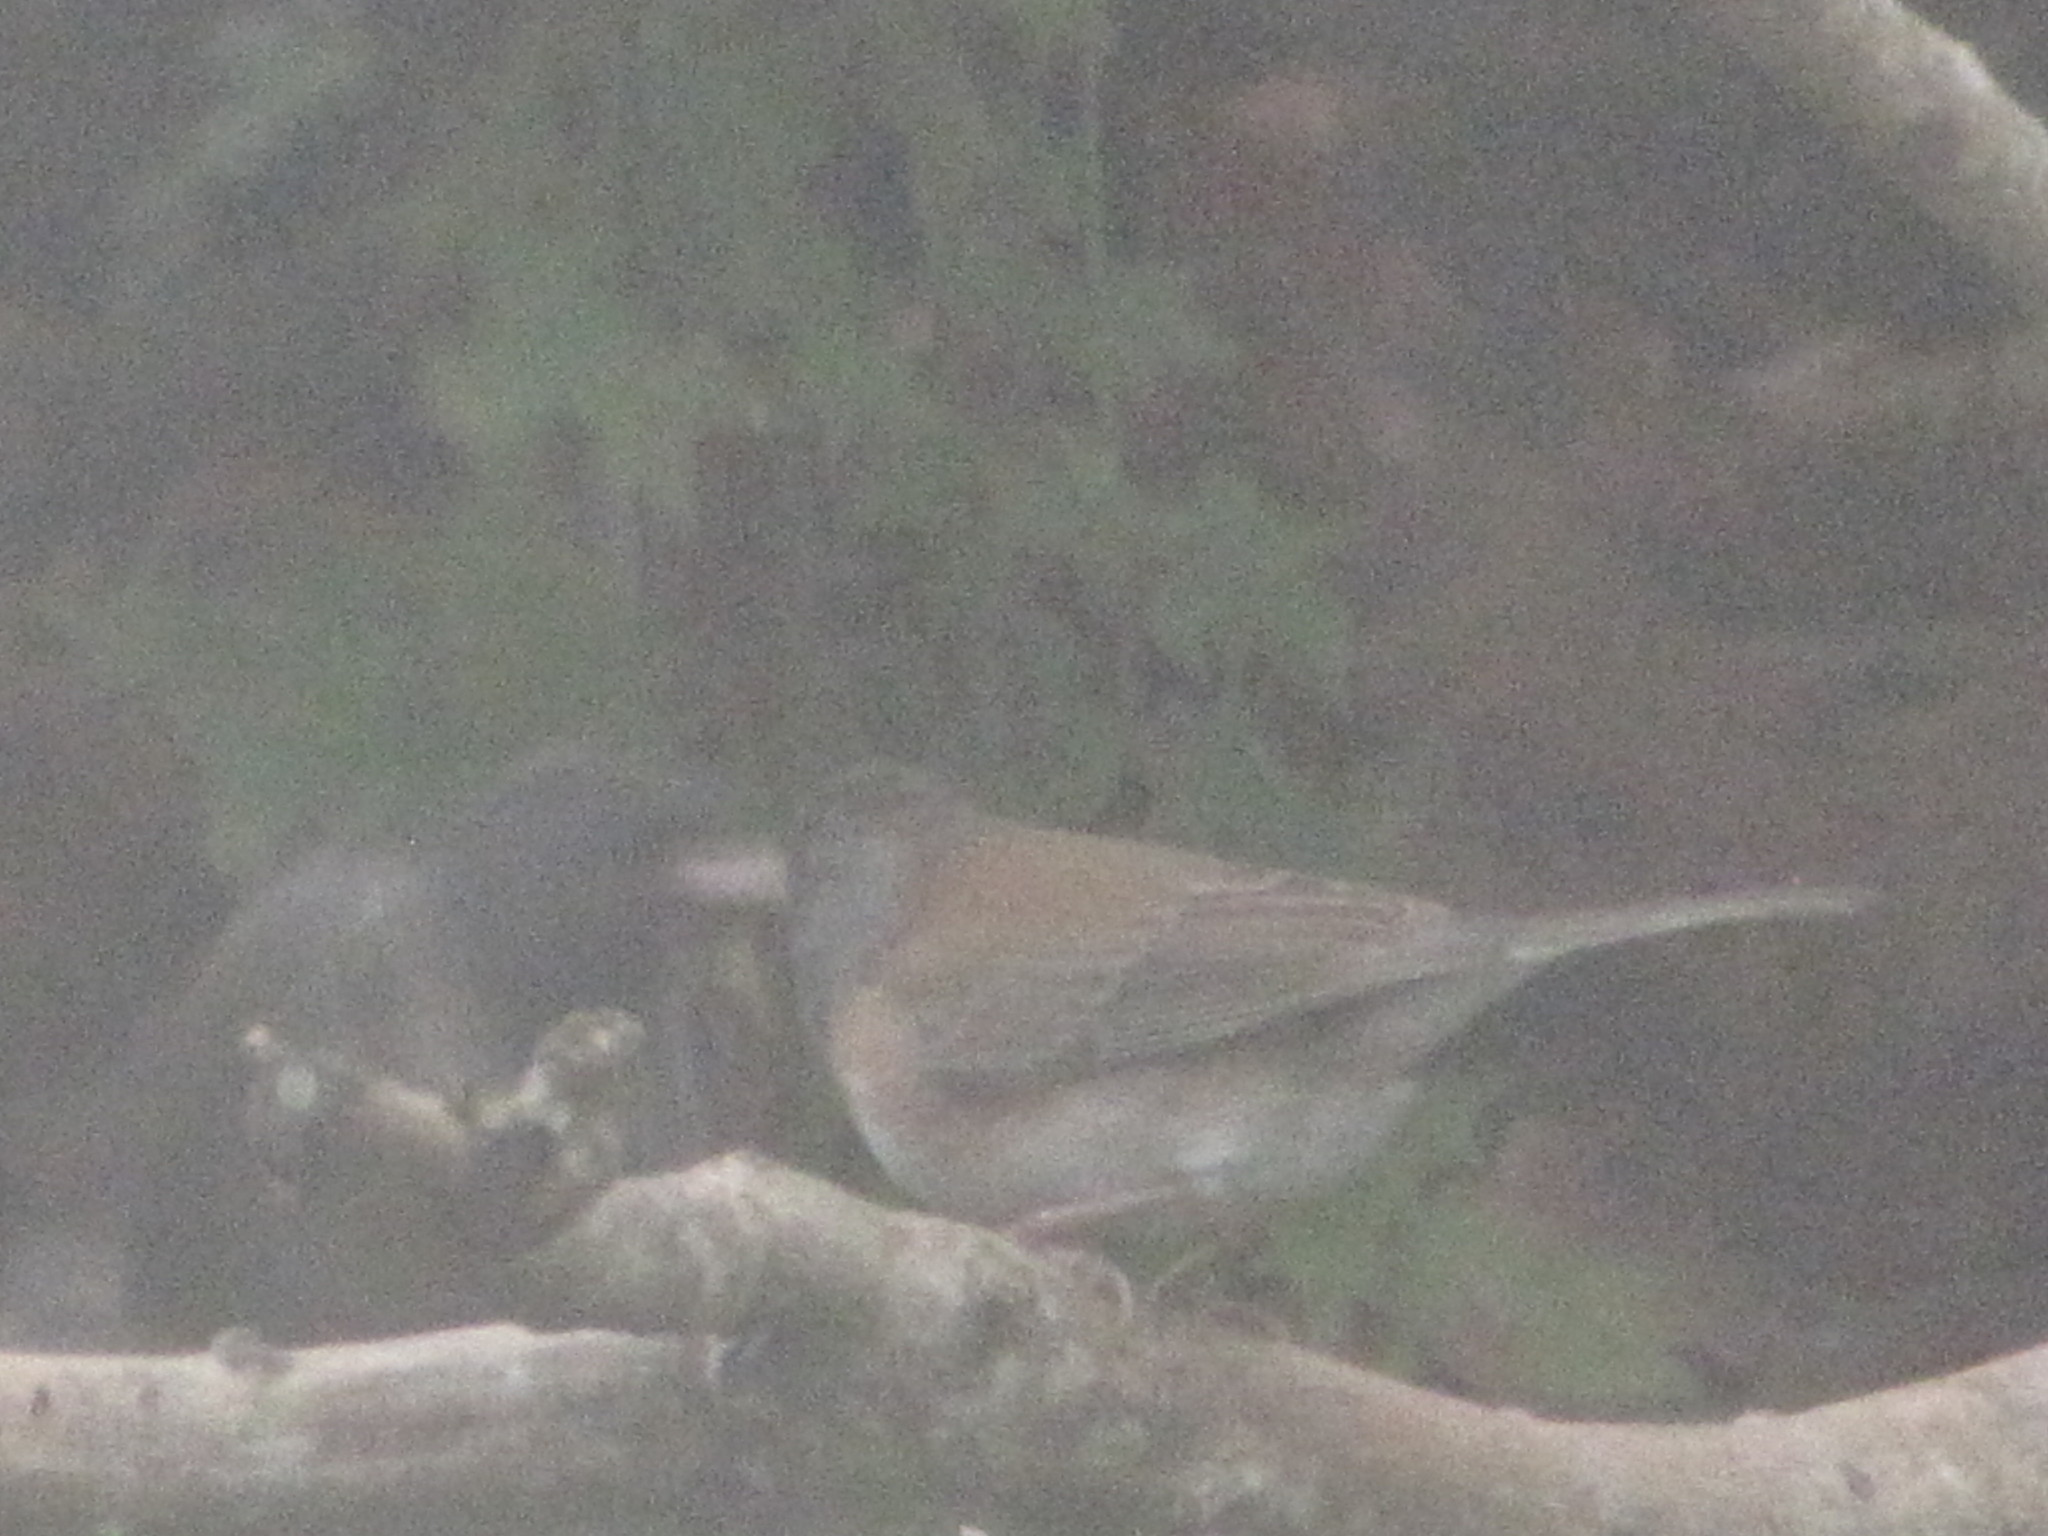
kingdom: Animalia
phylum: Chordata
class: Aves
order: Passeriformes
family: Passerellidae
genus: Junco
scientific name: Junco hyemalis
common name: Dark-eyed junco
